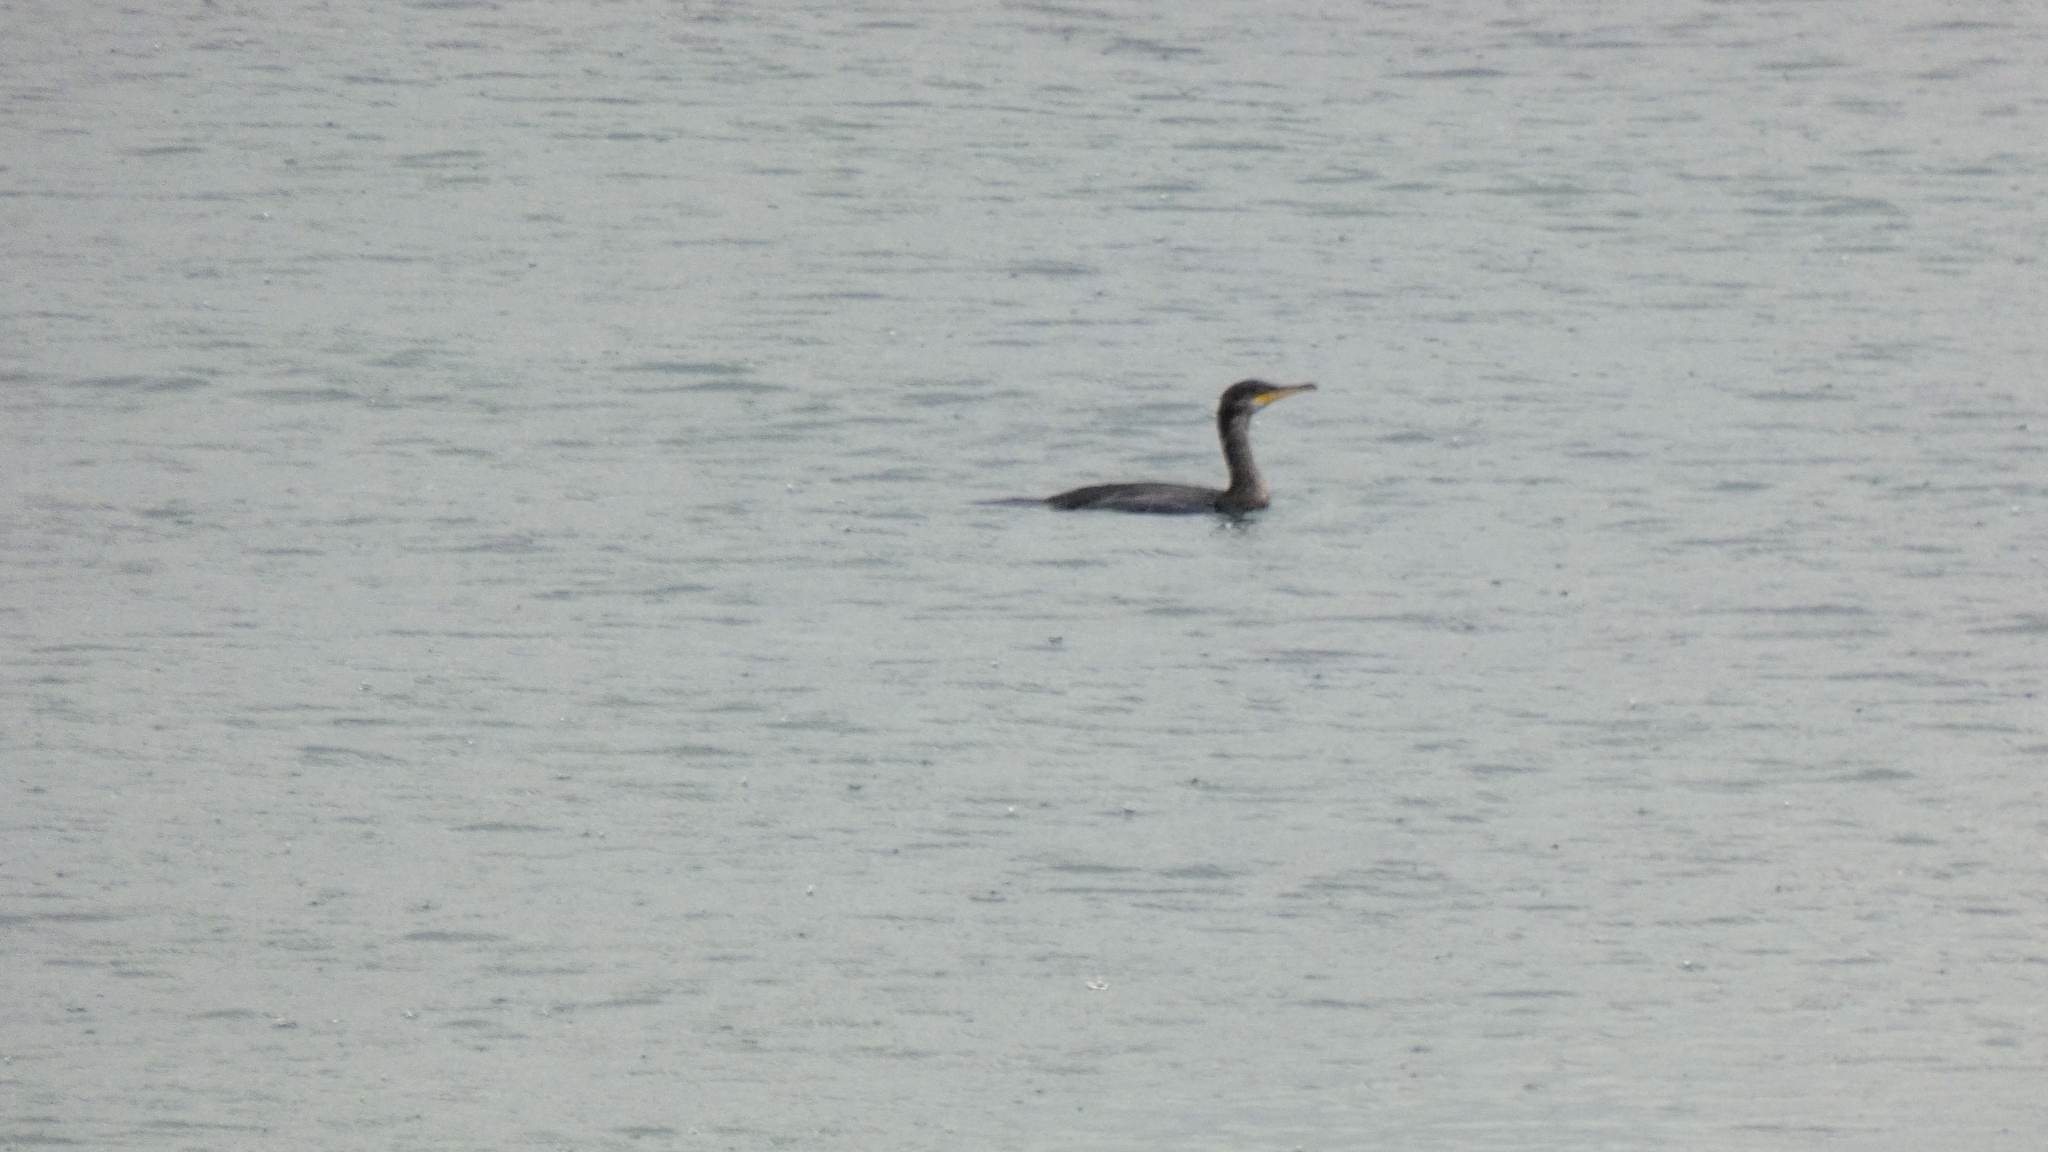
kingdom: Animalia
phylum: Chordata
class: Aves
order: Suliformes
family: Phalacrocoracidae
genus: Phalacrocorax
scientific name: Phalacrocorax carbo
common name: Great cormorant
